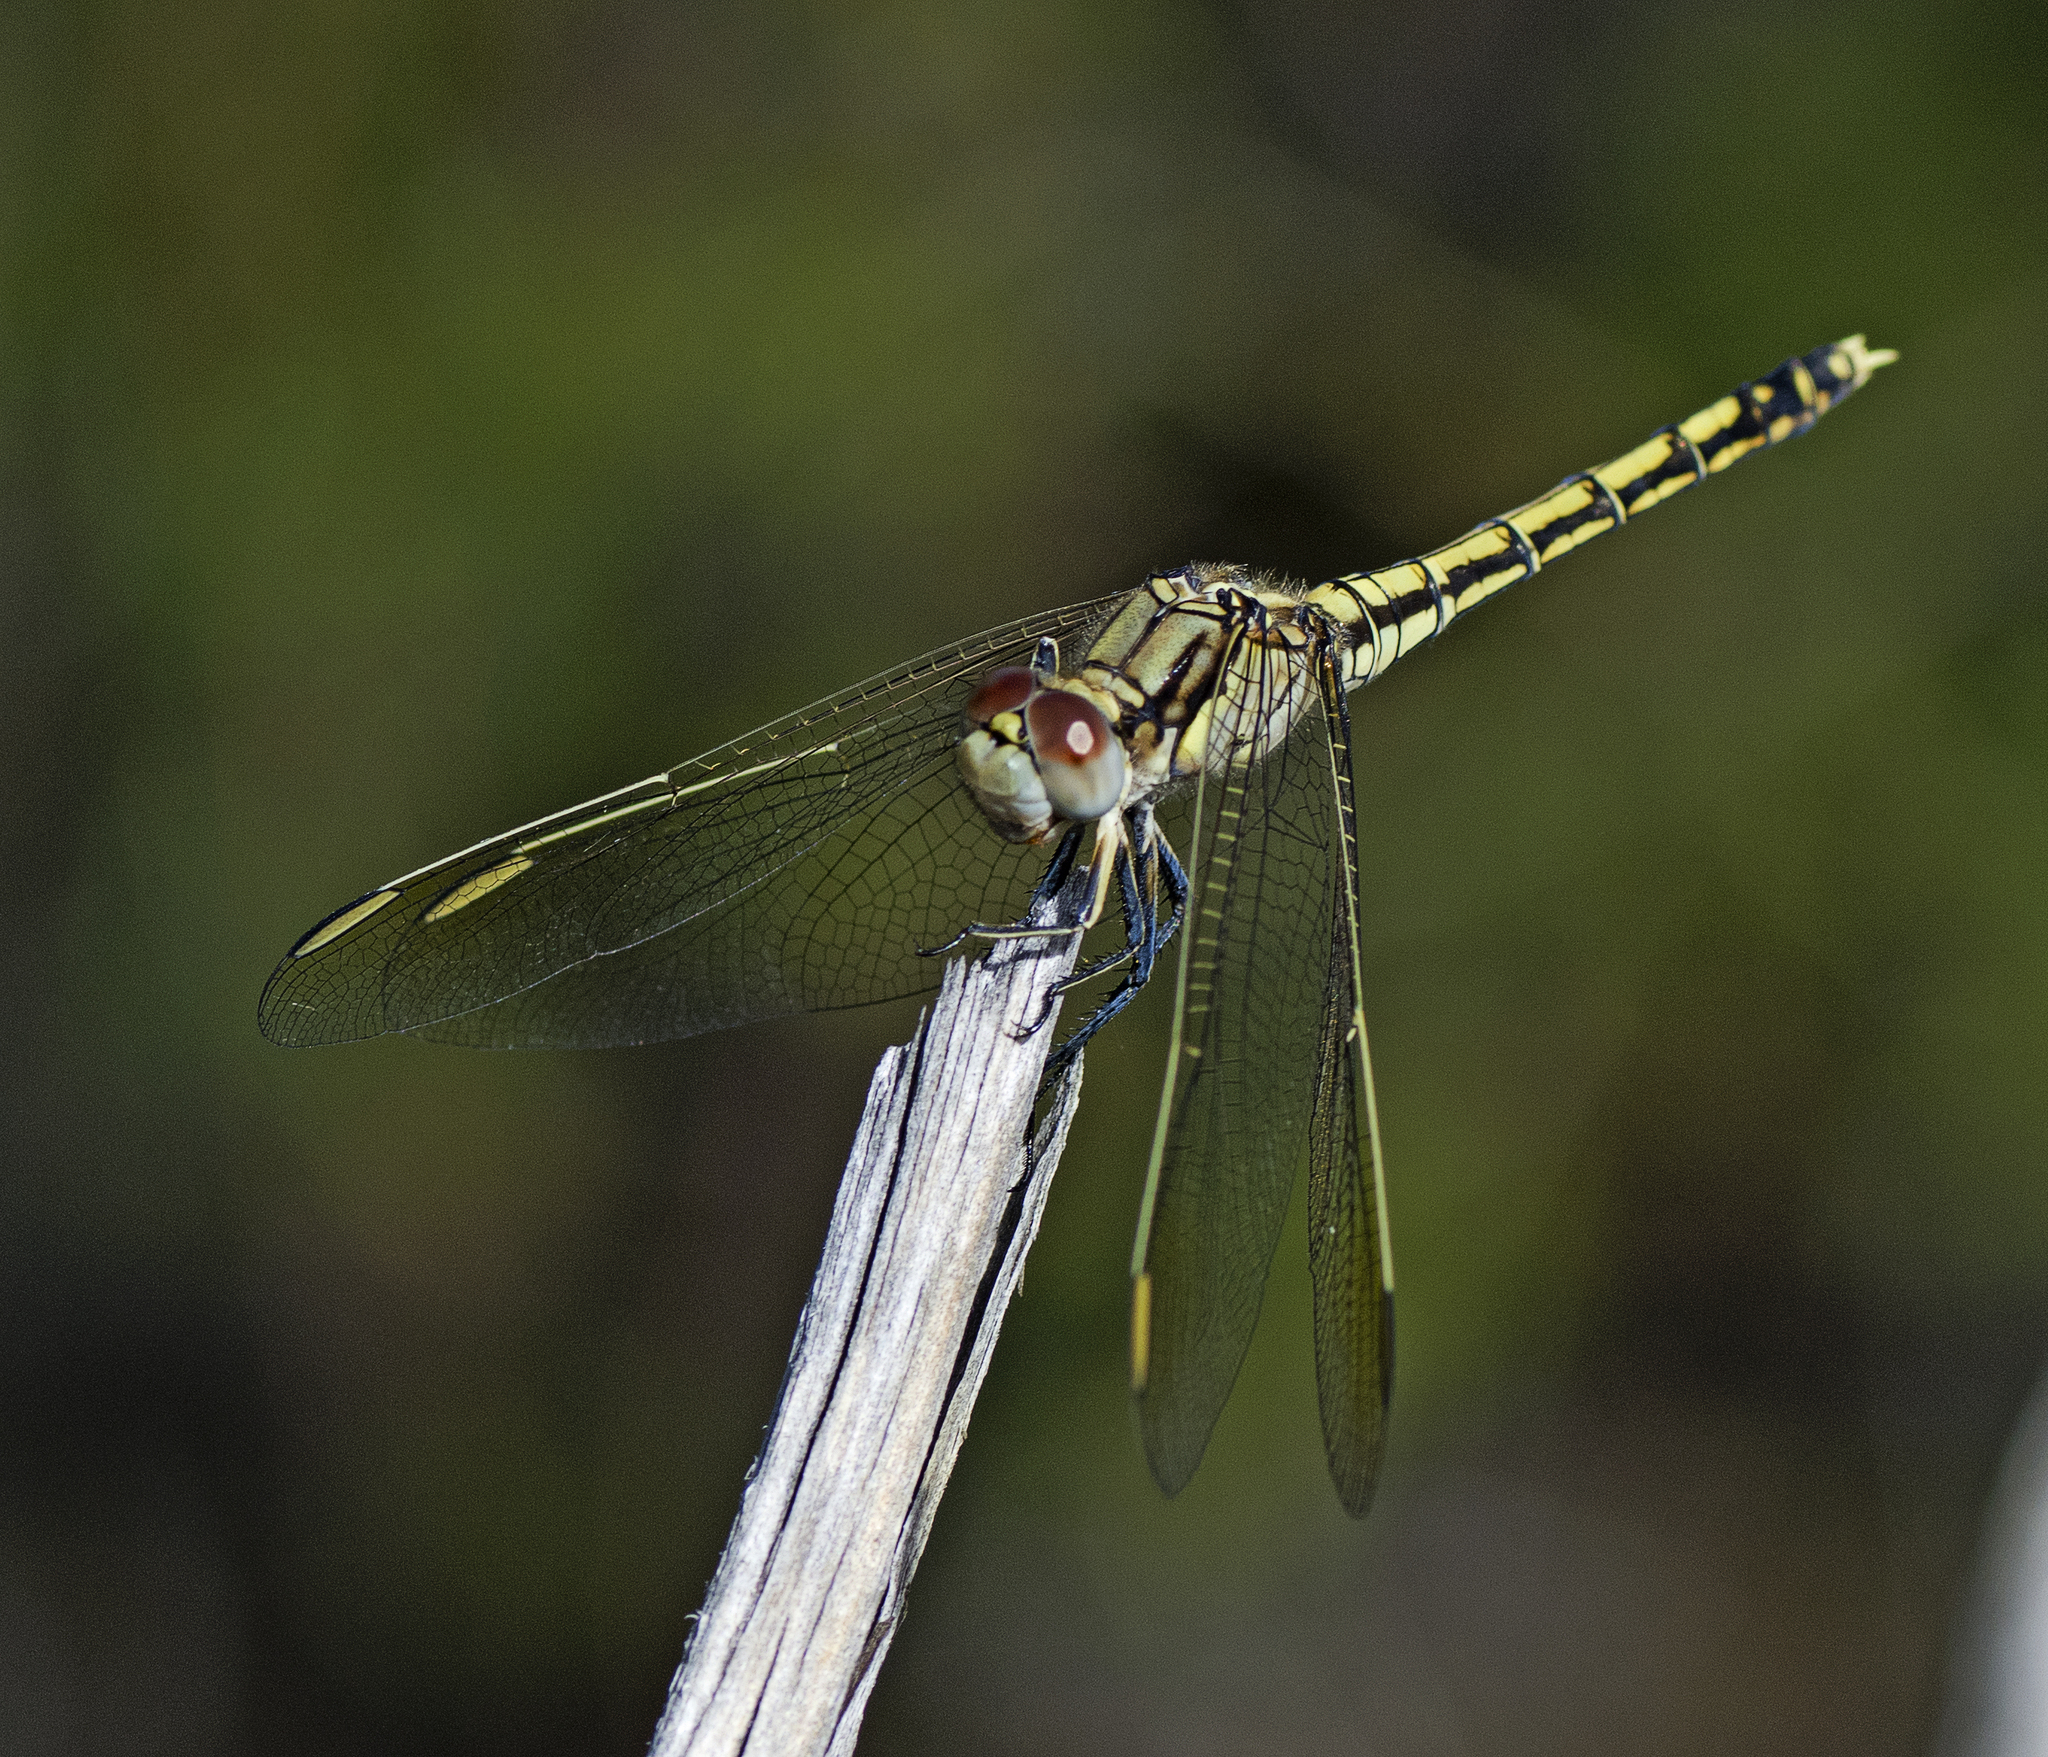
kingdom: Animalia
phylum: Arthropoda
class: Insecta
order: Odonata
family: Libellulidae
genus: Orthetrum
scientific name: Orthetrum caledonicum
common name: Blue skimmer
